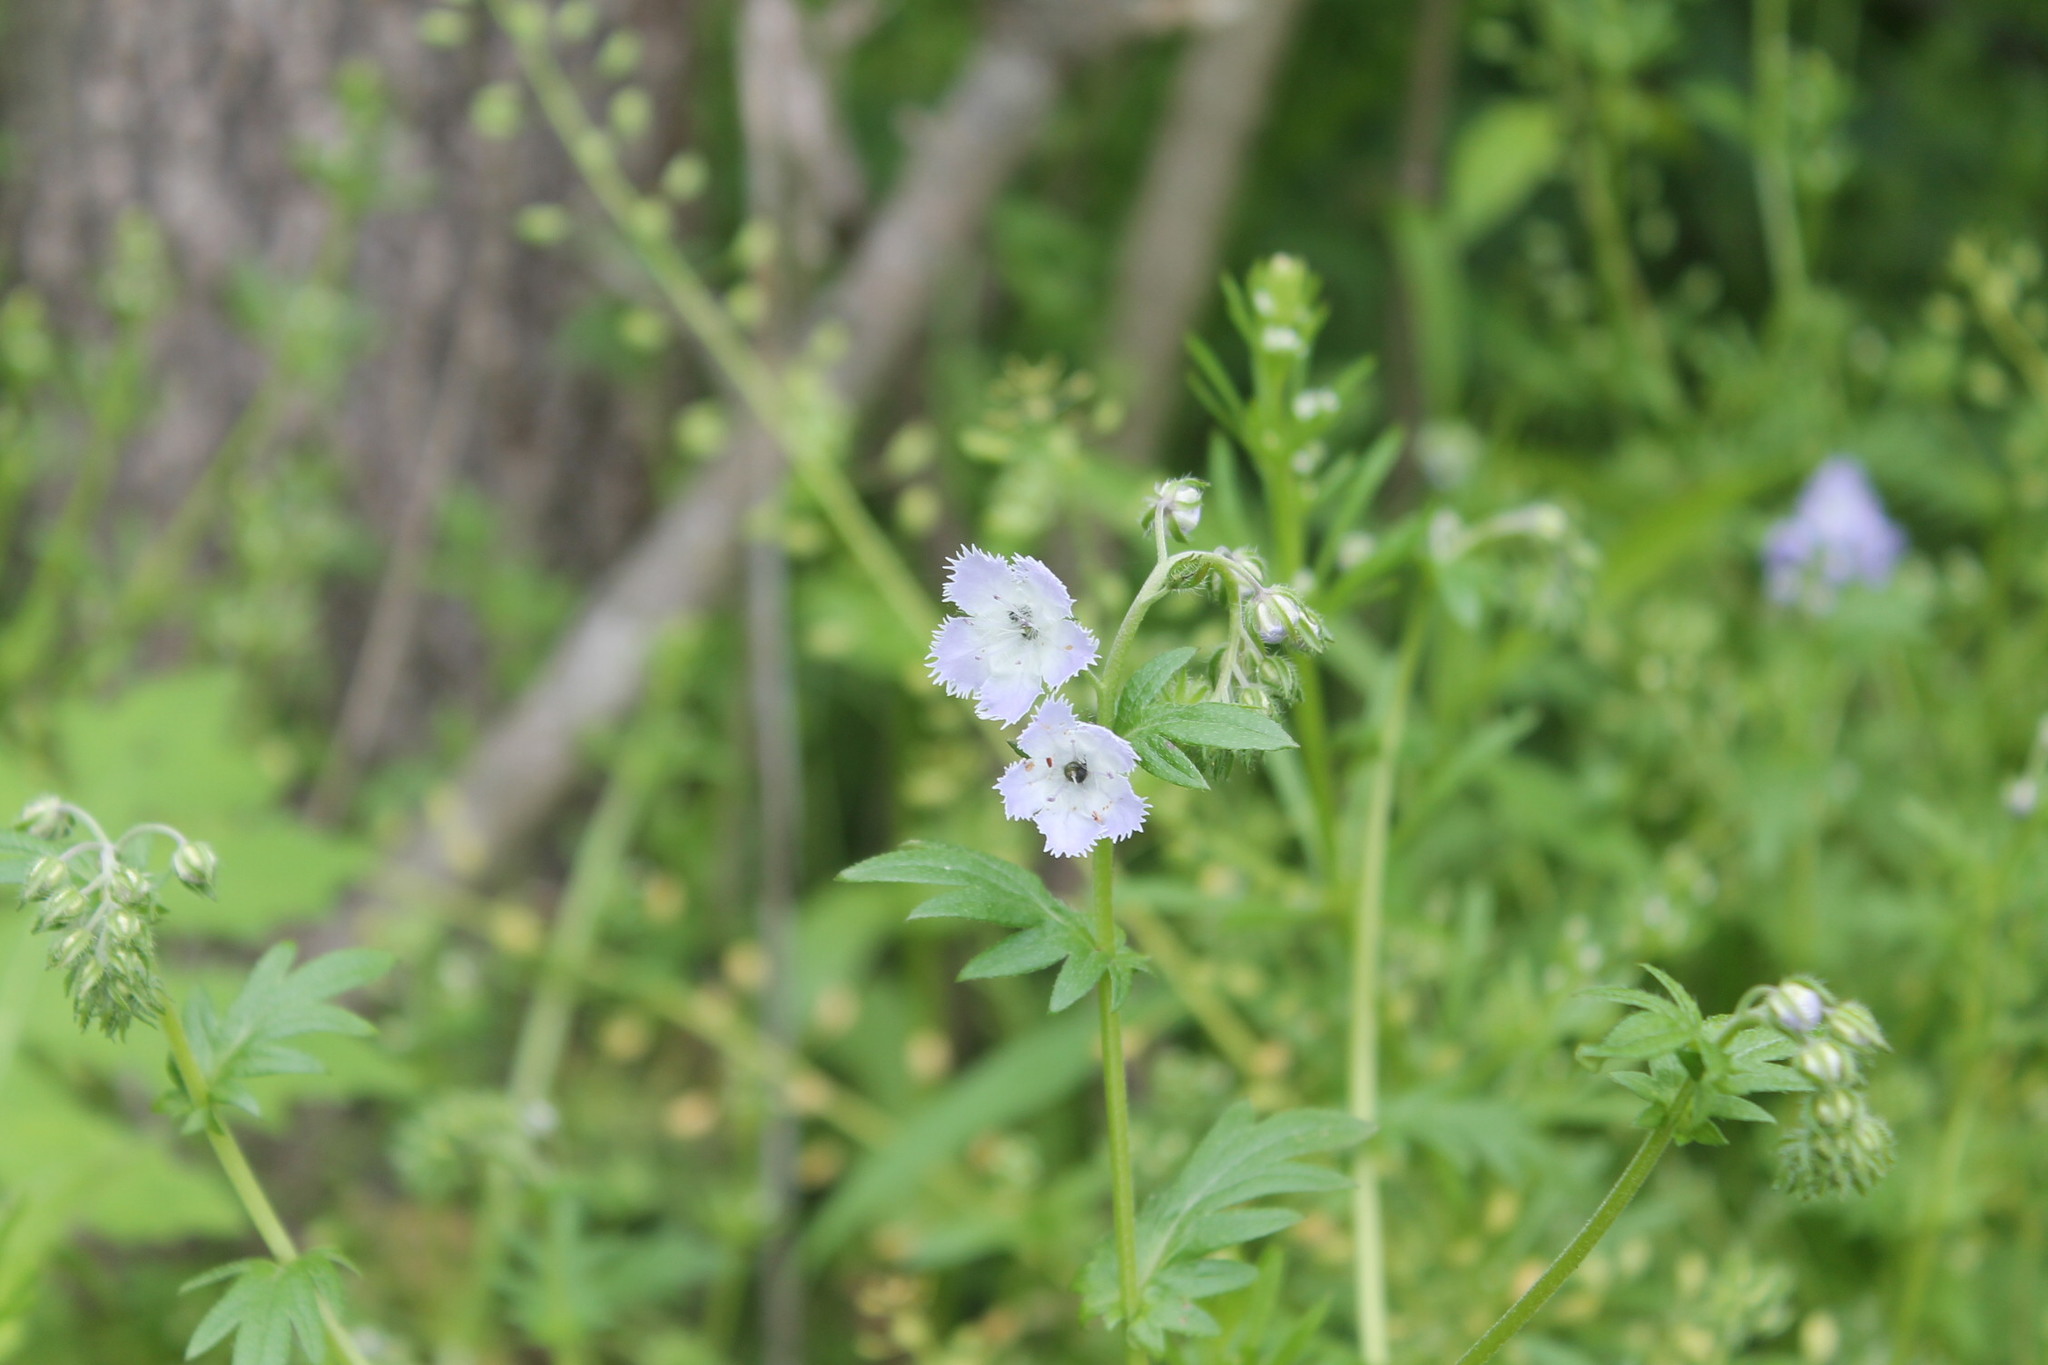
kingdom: Plantae
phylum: Tracheophyta
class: Magnoliopsida
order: Boraginales
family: Hydrophyllaceae
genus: Phacelia
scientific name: Phacelia purshii
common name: Miami-mist
